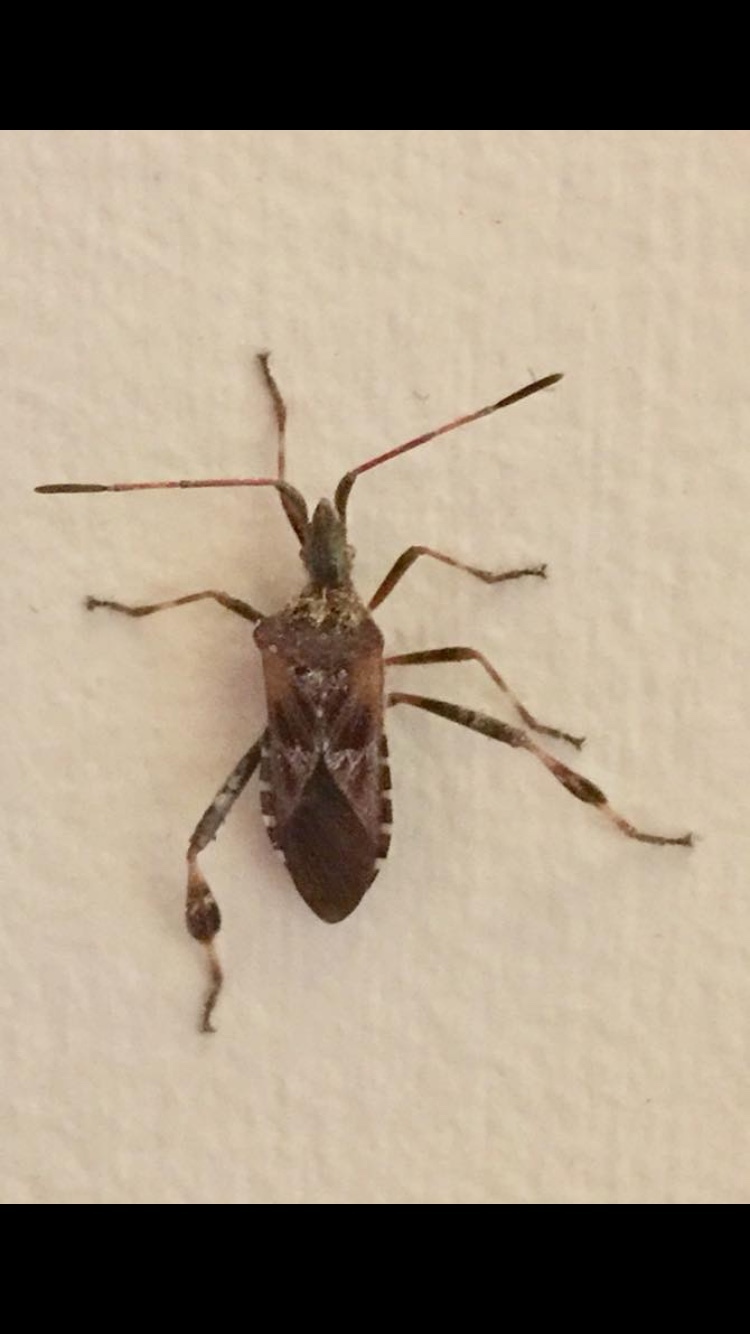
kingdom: Animalia
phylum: Arthropoda
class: Insecta
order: Hemiptera
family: Coreidae
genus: Leptoglossus
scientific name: Leptoglossus occidentalis
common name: Western conifer-seed bug
